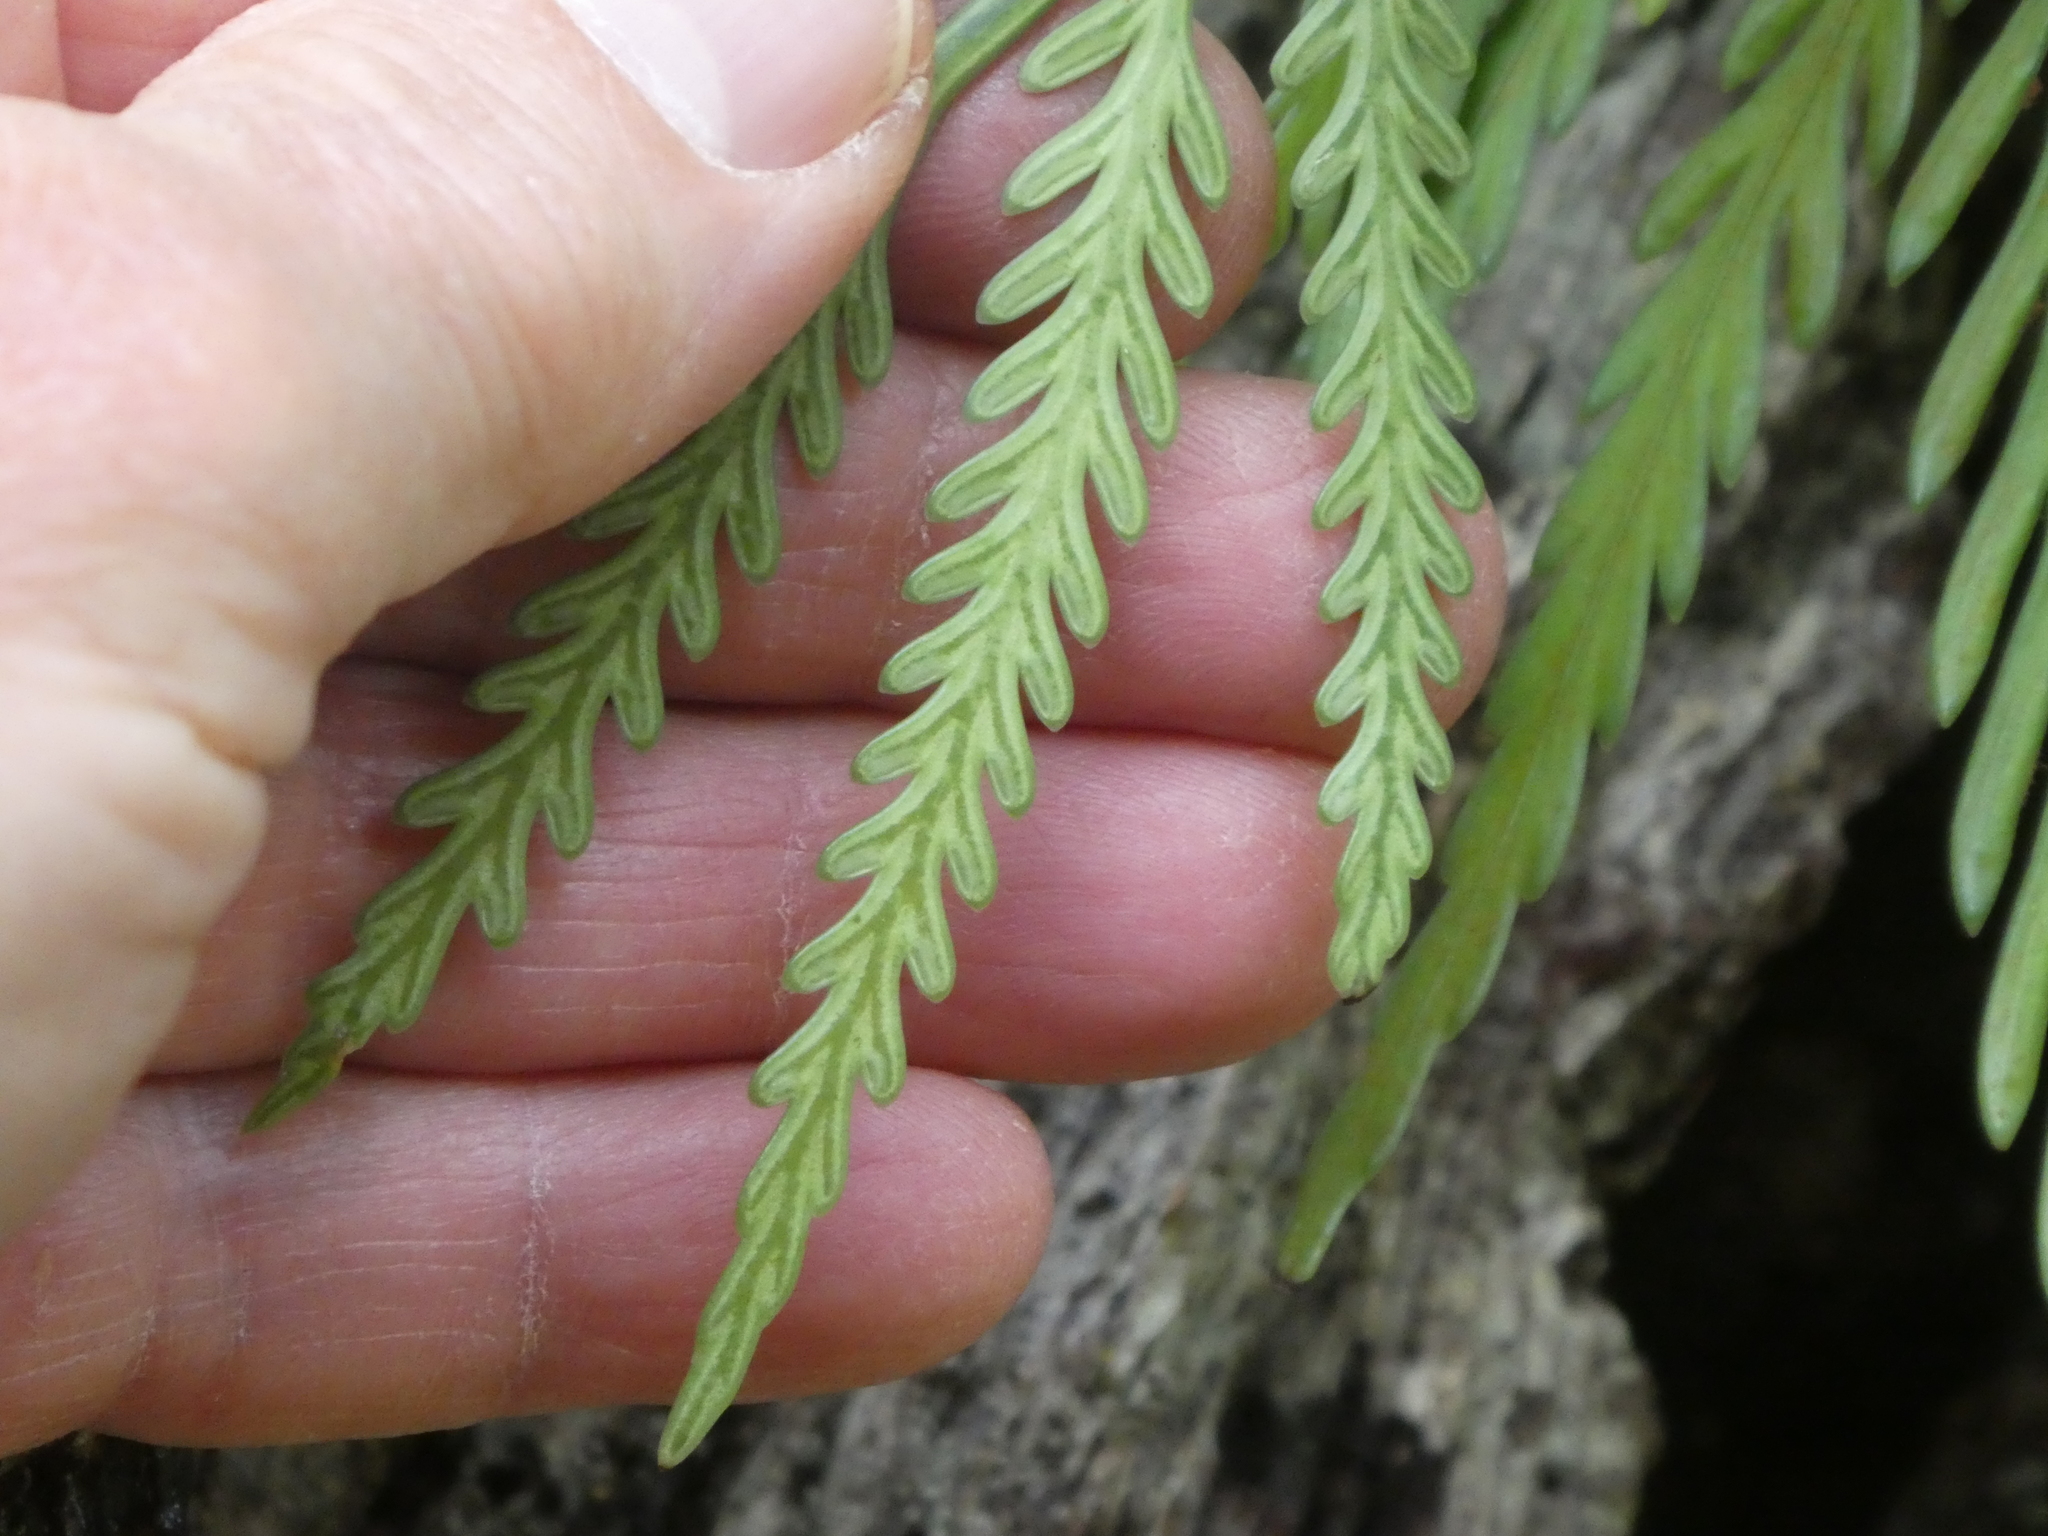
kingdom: Plantae
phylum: Tracheophyta
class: Polypodiopsida
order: Polypodiales
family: Aspleniaceae
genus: Asplenium
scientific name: Asplenium flaccidum
